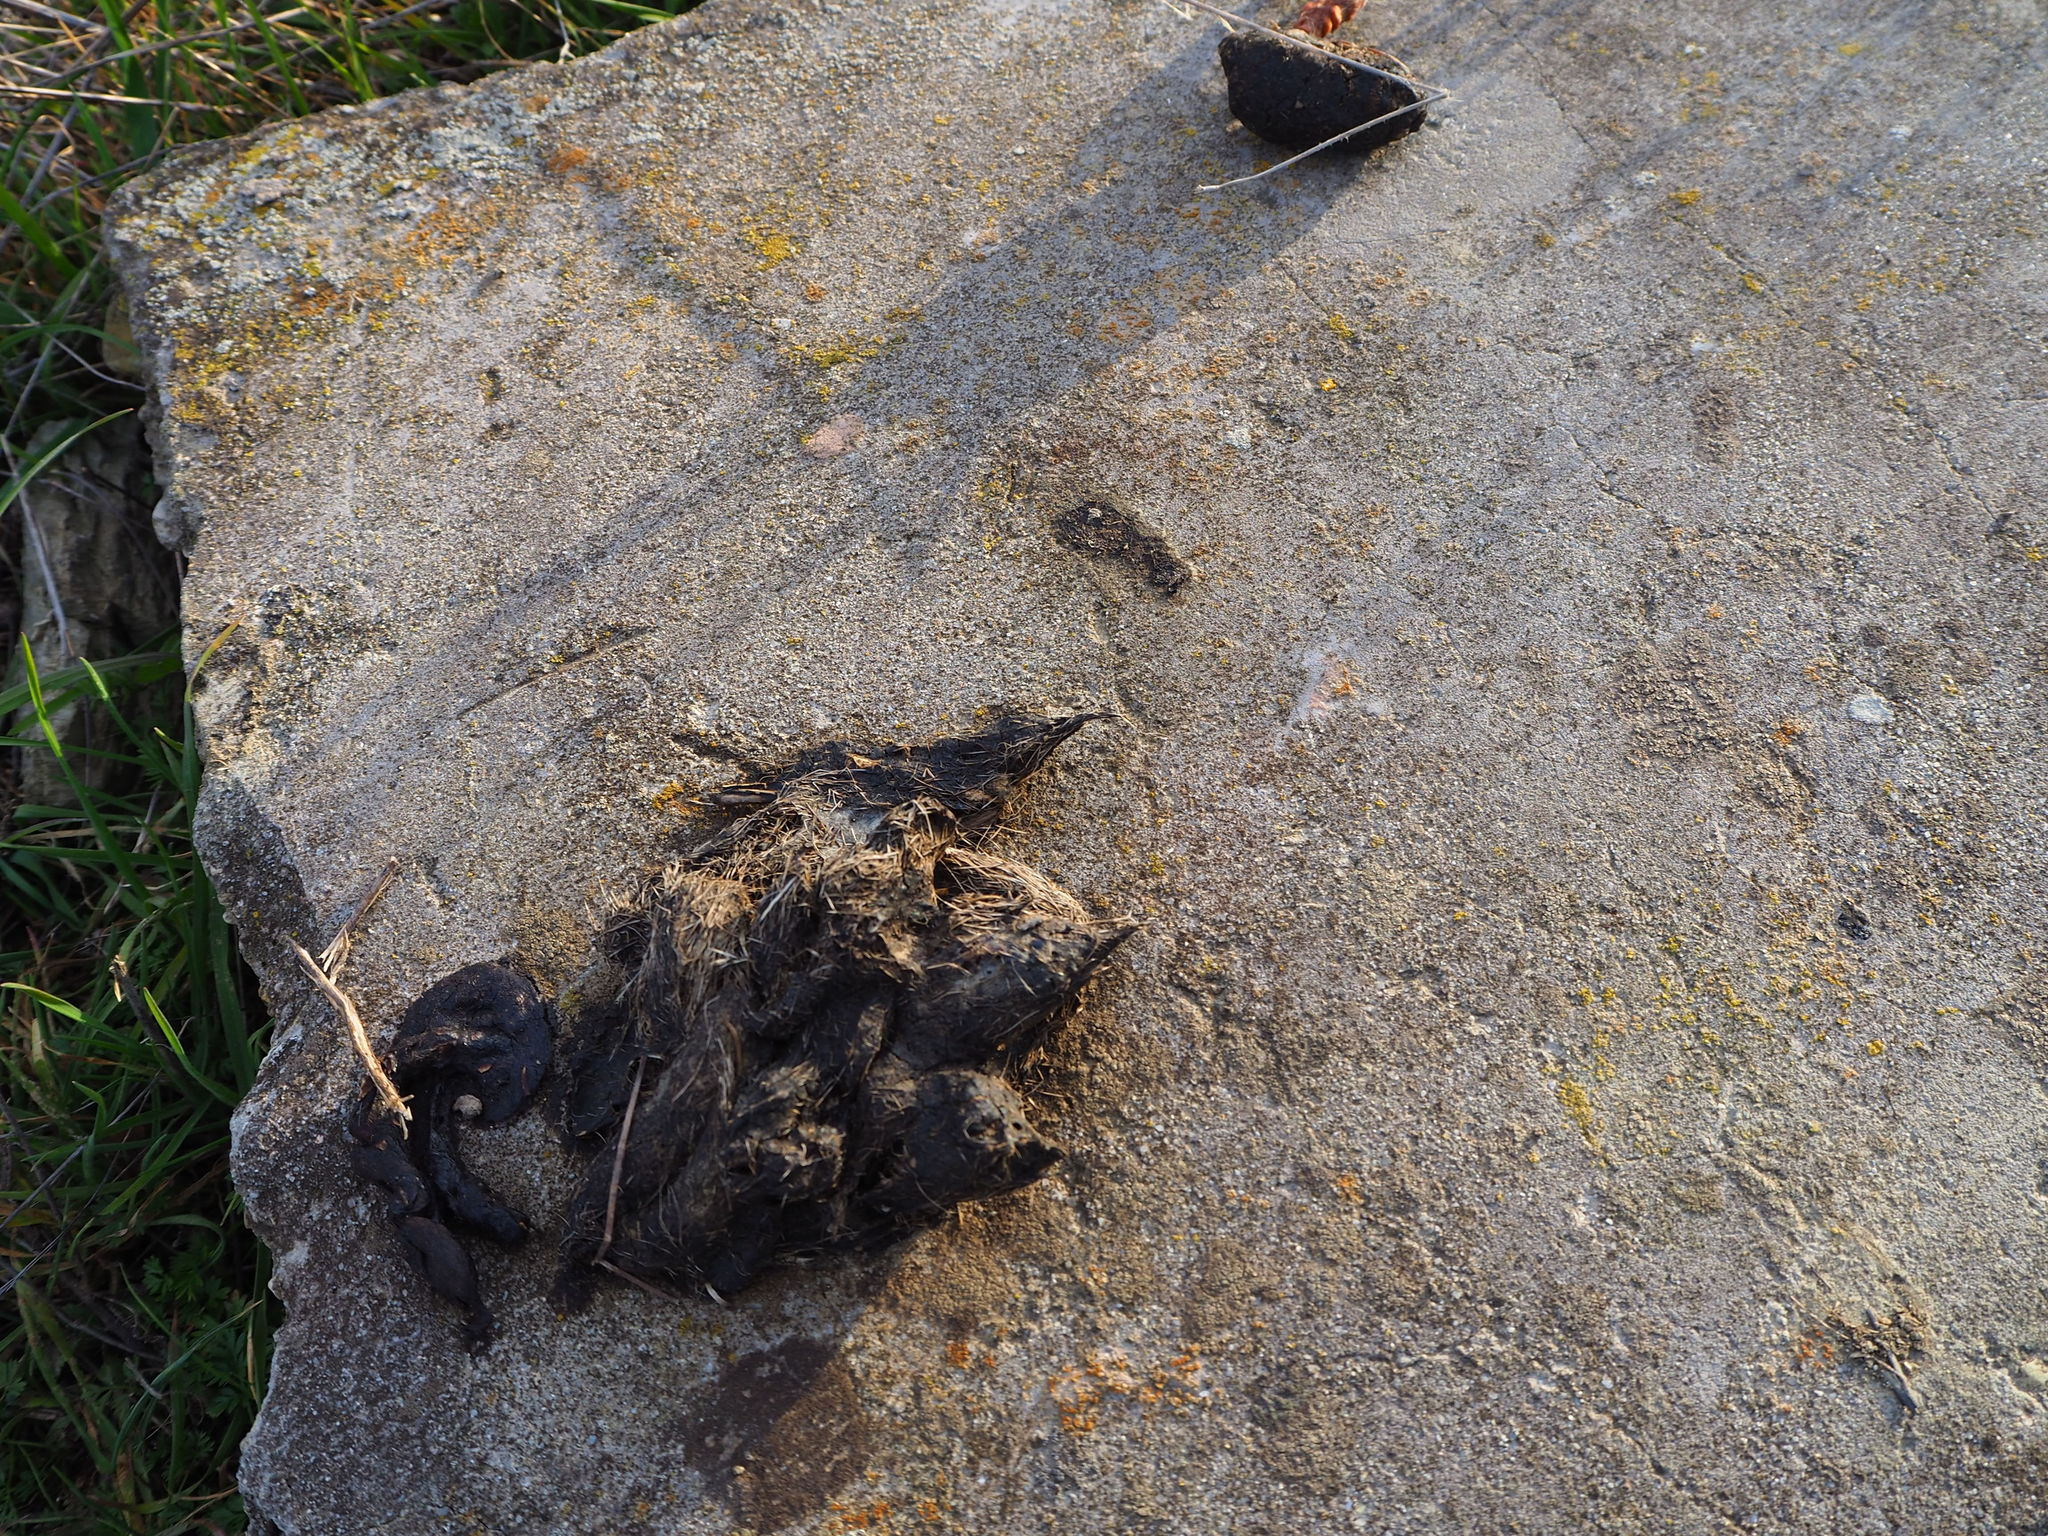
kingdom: Animalia
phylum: Chordata
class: Mammalia
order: Carnivora
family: Canidae
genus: Canis
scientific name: Canis lupus
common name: Gray wolf
